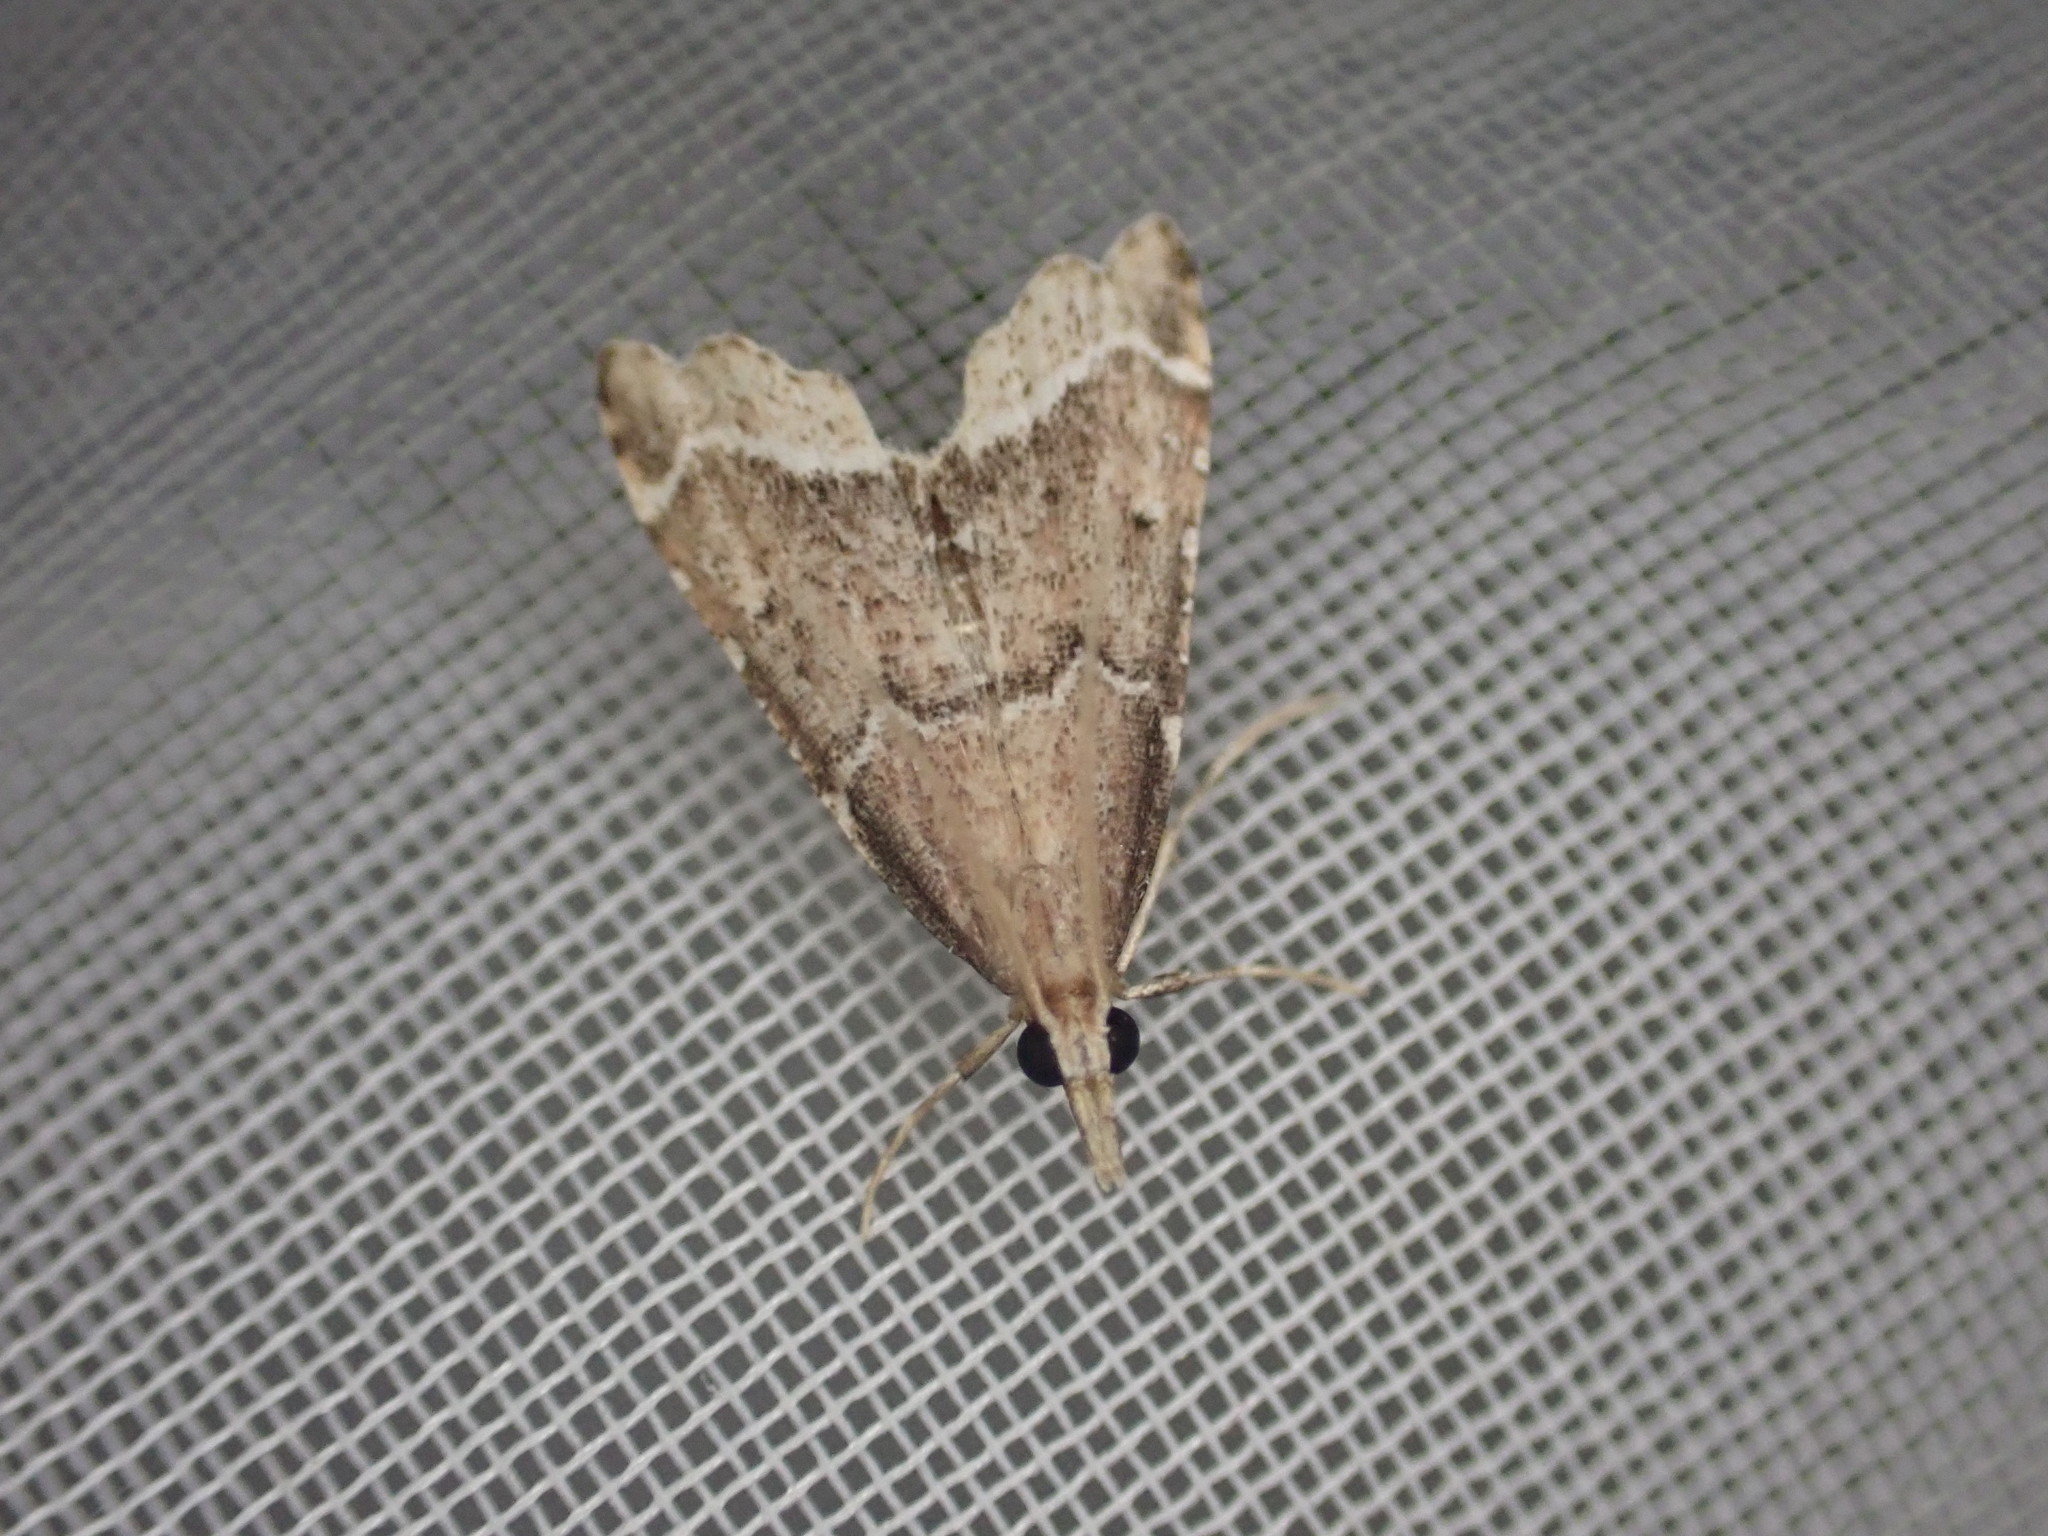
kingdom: Animalia
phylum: Arthropoda
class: Insecta
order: Lepidoptera
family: Crambidae
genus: Diplopseustis
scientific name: Diplopseustis perieresalis
